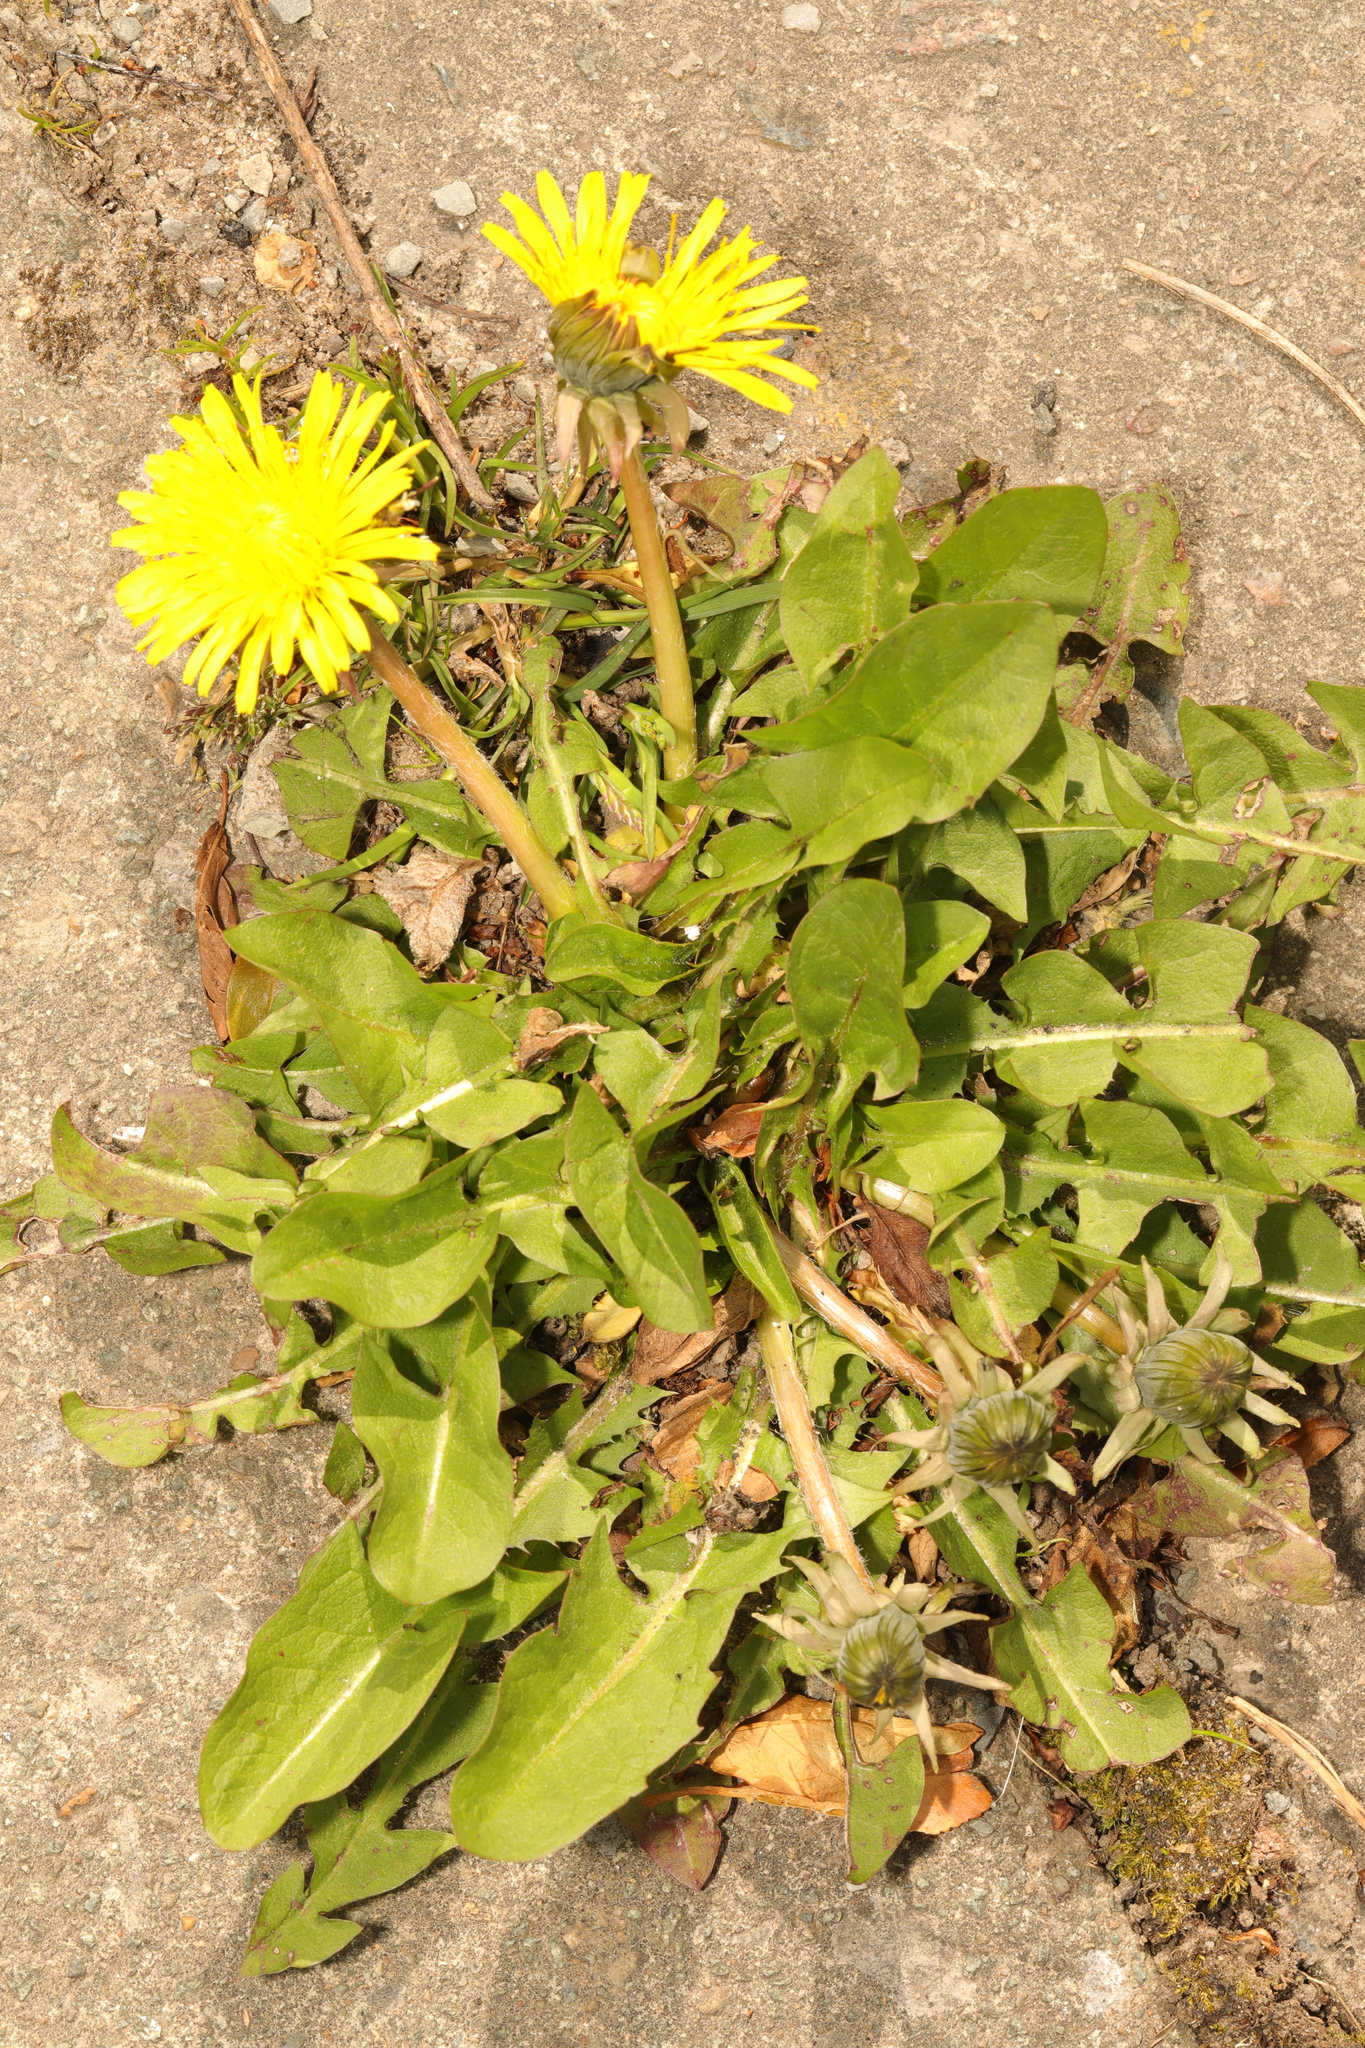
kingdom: Plantae
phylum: Tracheophyta
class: Magnoliopsida
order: Asterales
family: Asteraceae
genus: Taraxacum
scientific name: Taraxacum officinale
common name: Common dandelion
